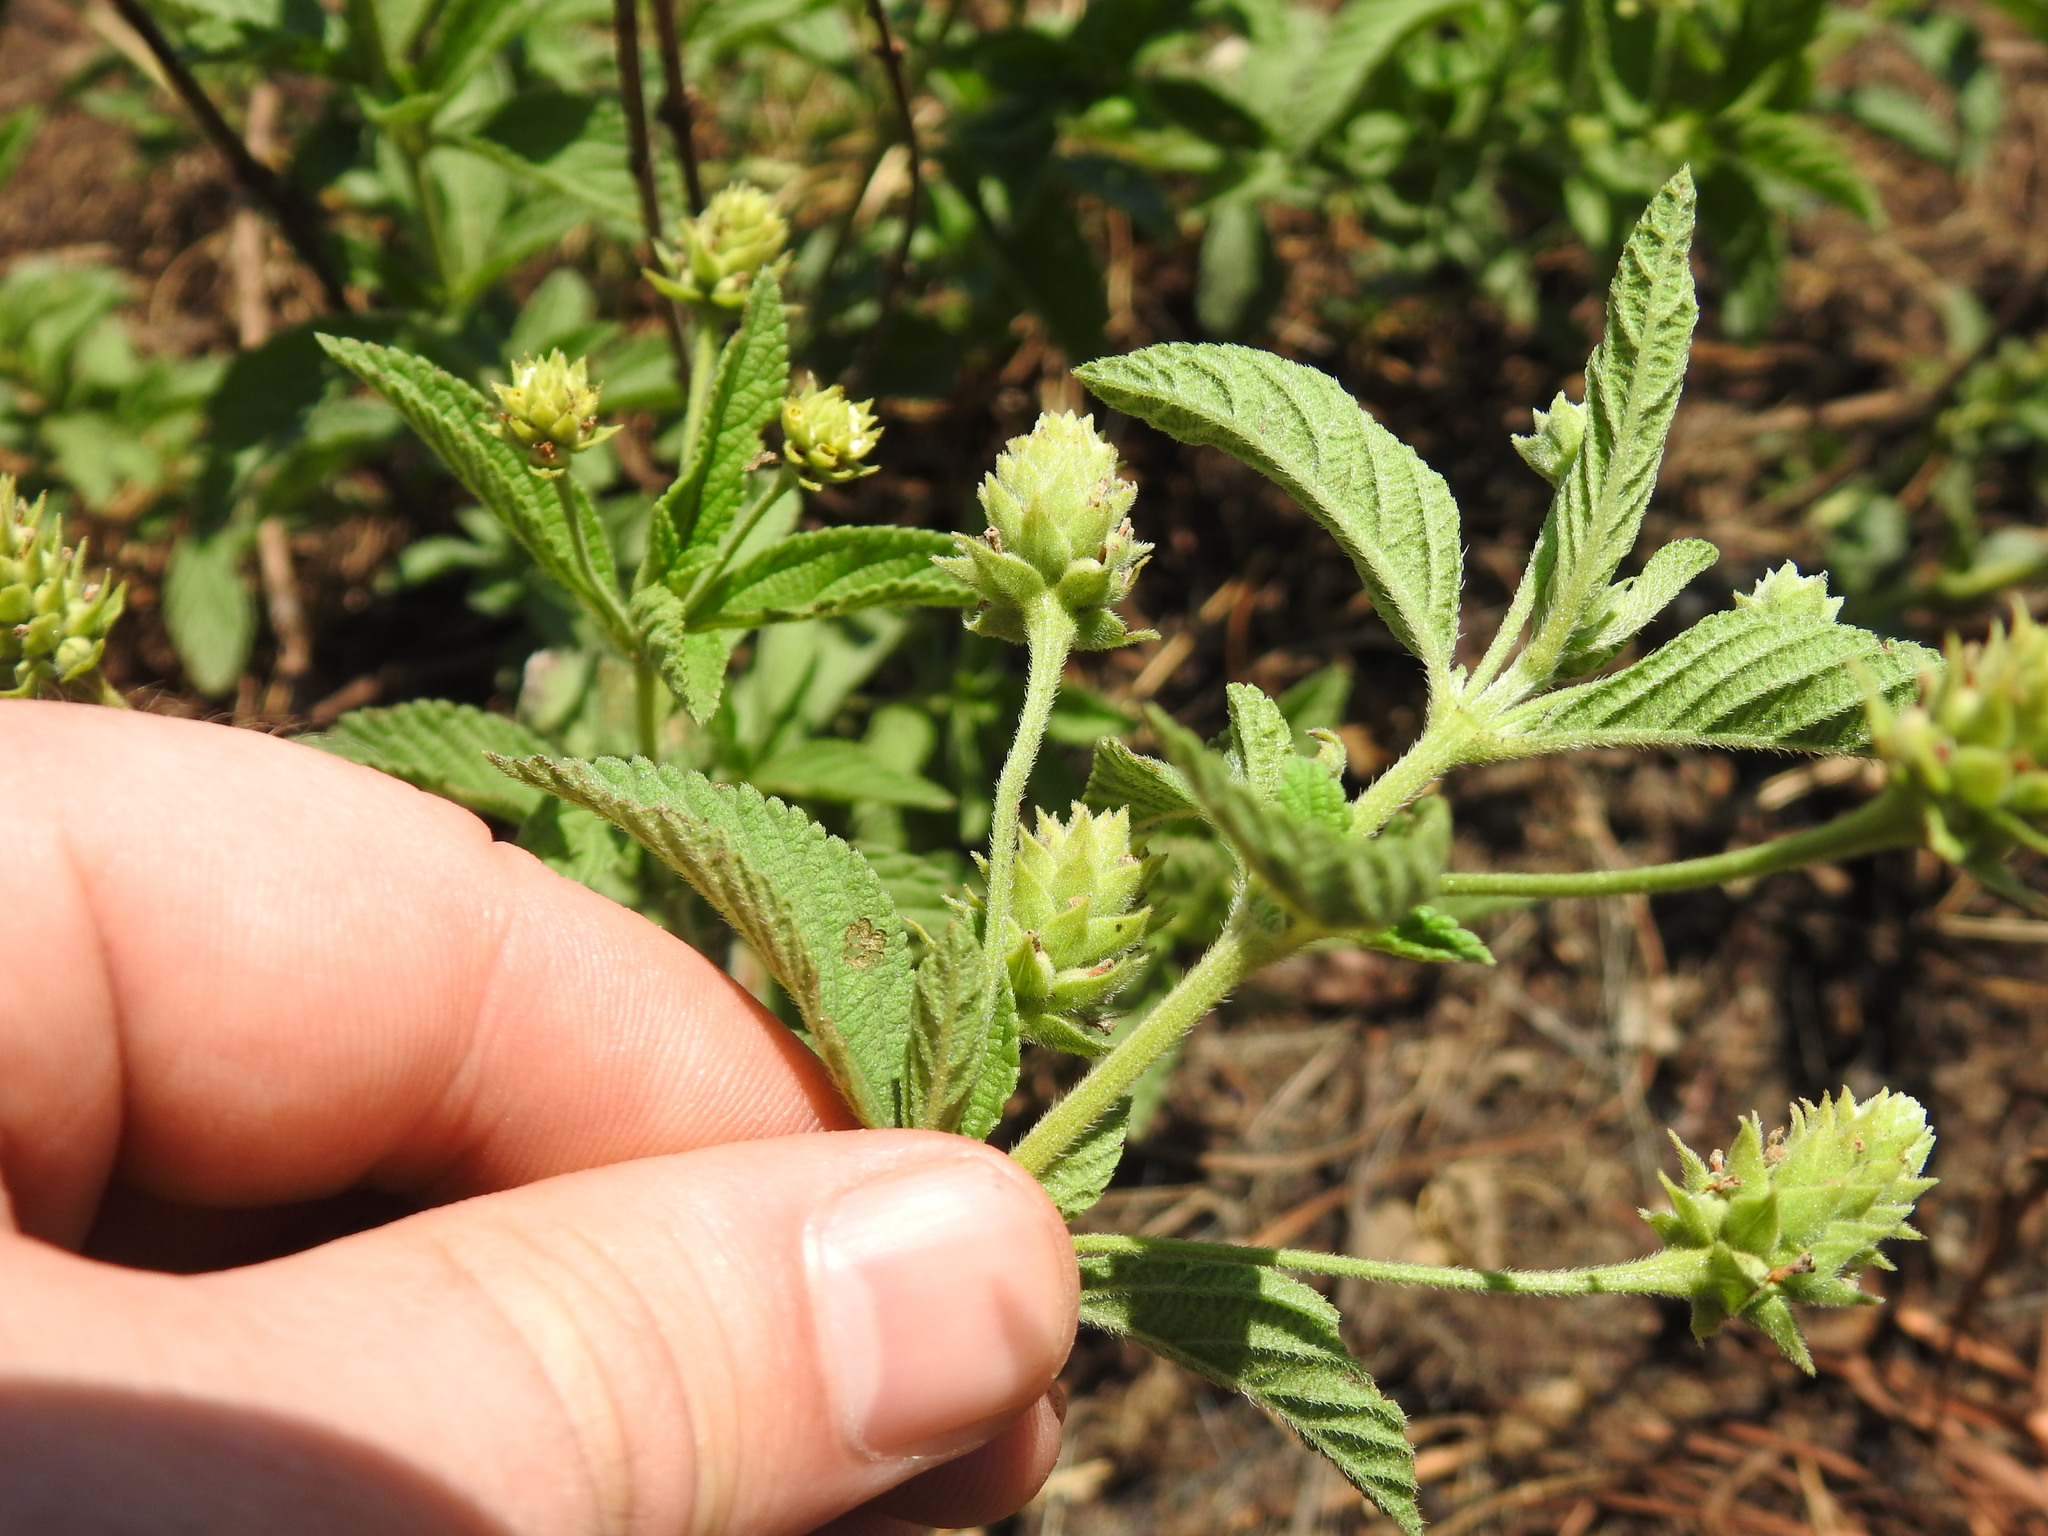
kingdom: Plantae
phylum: Tracheophyta
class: Magnoliopsida
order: Lamiales
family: Verbenaceae
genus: Lippia
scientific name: Lippia javanica
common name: Lemonbush
